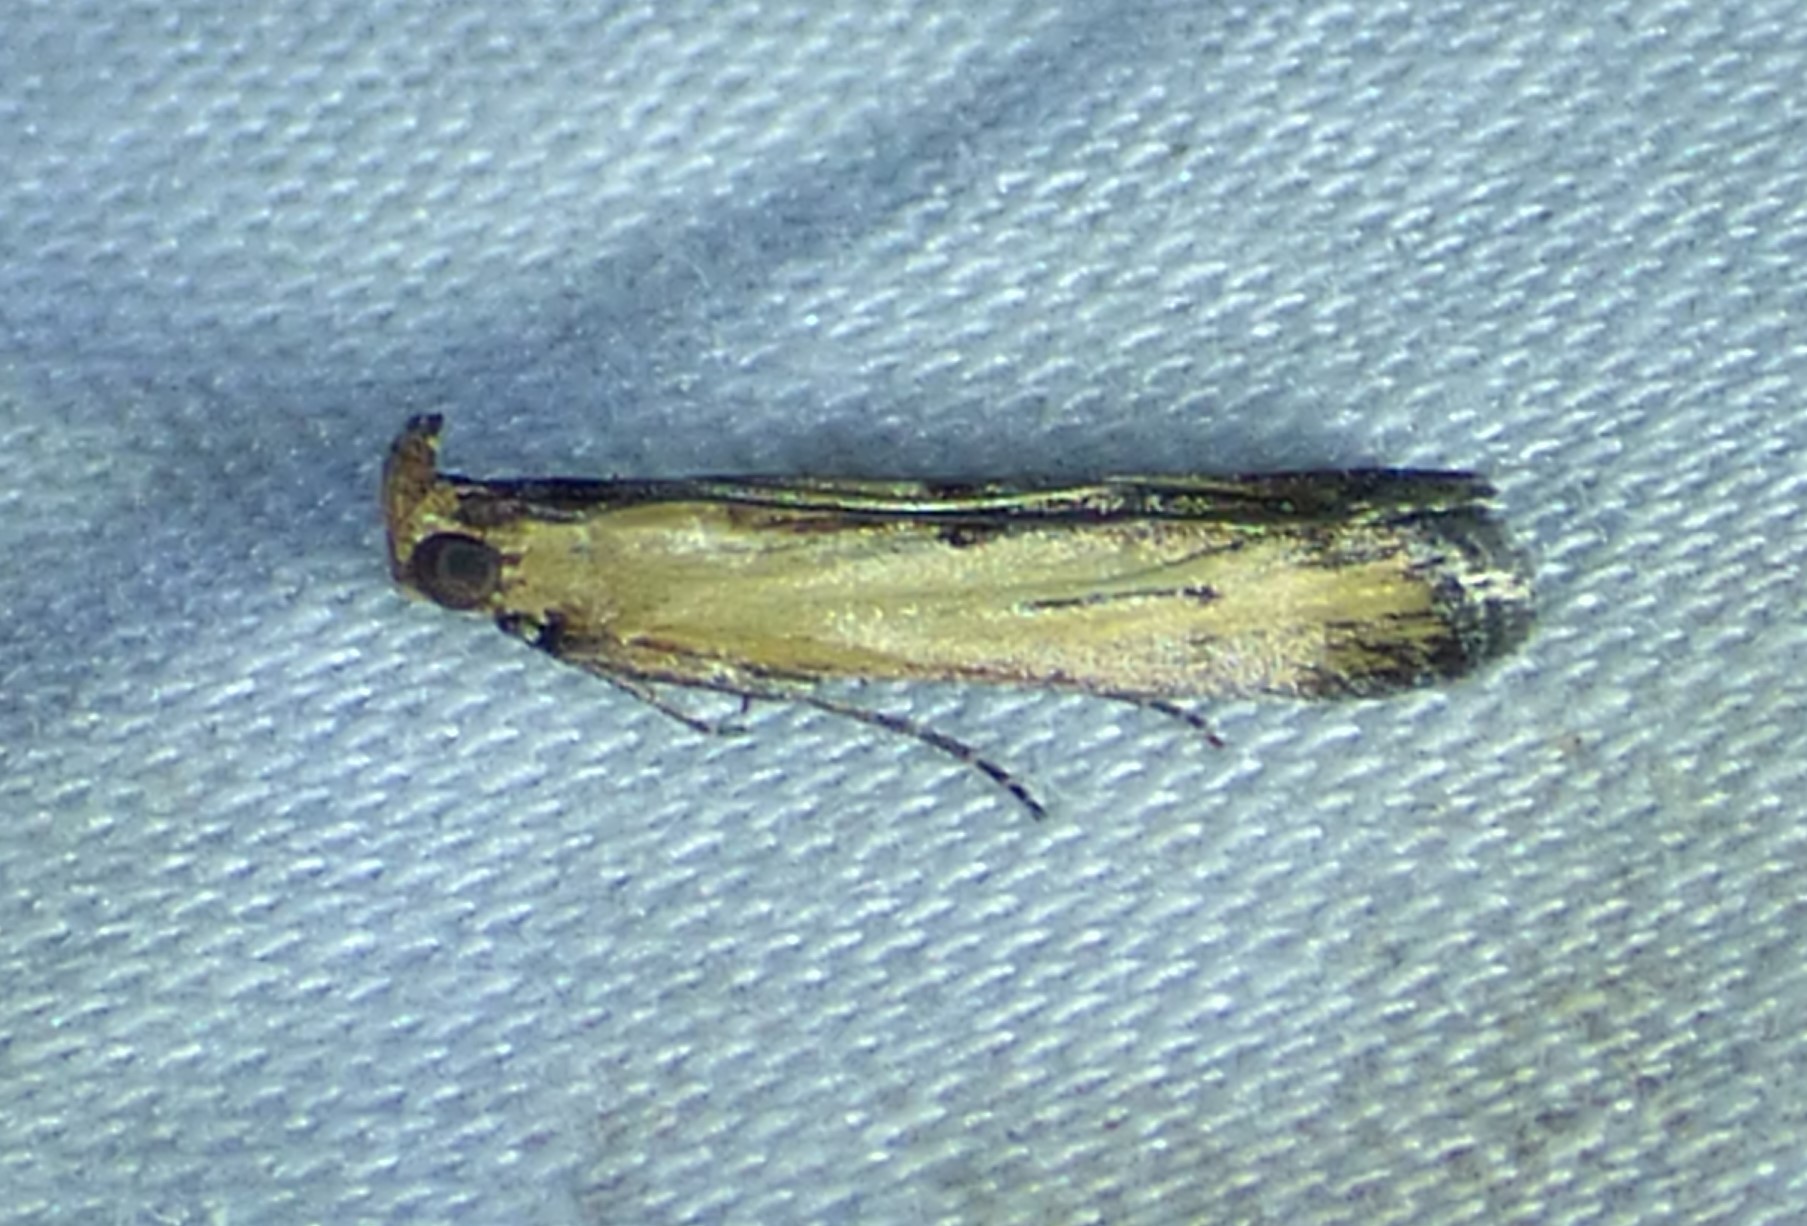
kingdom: Animalia
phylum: Arthropoda
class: Insecta
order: Lepidoptera
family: Pyralidae
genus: Elasmopalpus
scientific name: Elasmopalpus lignosella
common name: Lesser cornstalk borer
